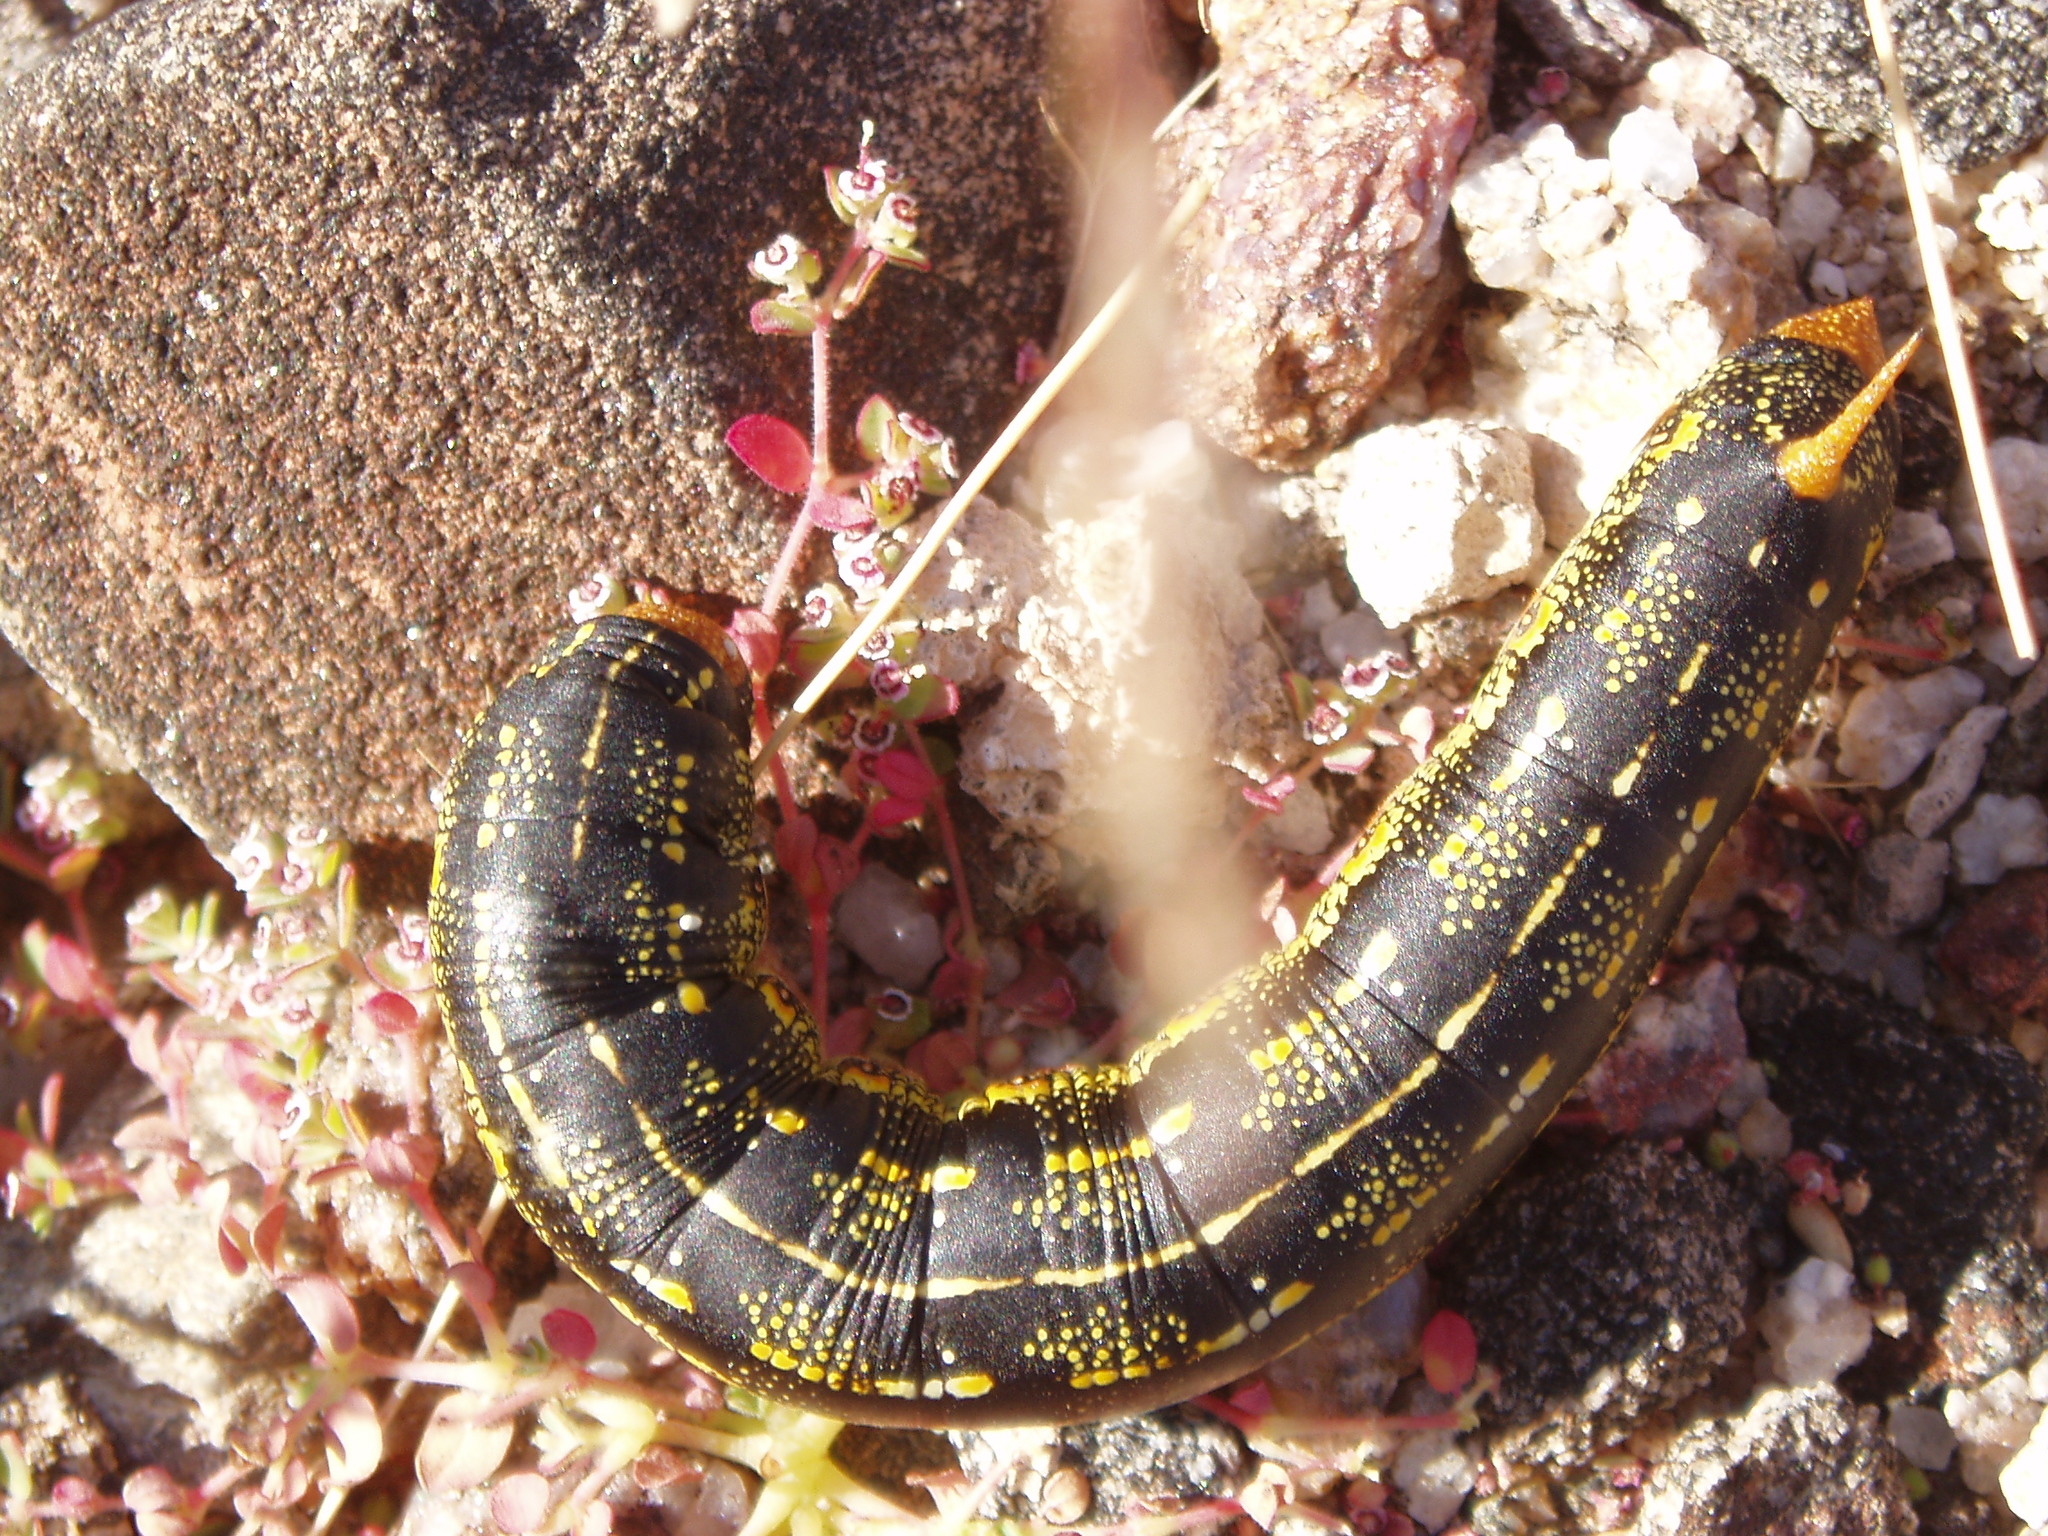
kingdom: Animalia
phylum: Arthropoda
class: Insecta
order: Lepidoptera
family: Sphingidae
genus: Hyles
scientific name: Hyles lineata
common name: White-lined sphinx
